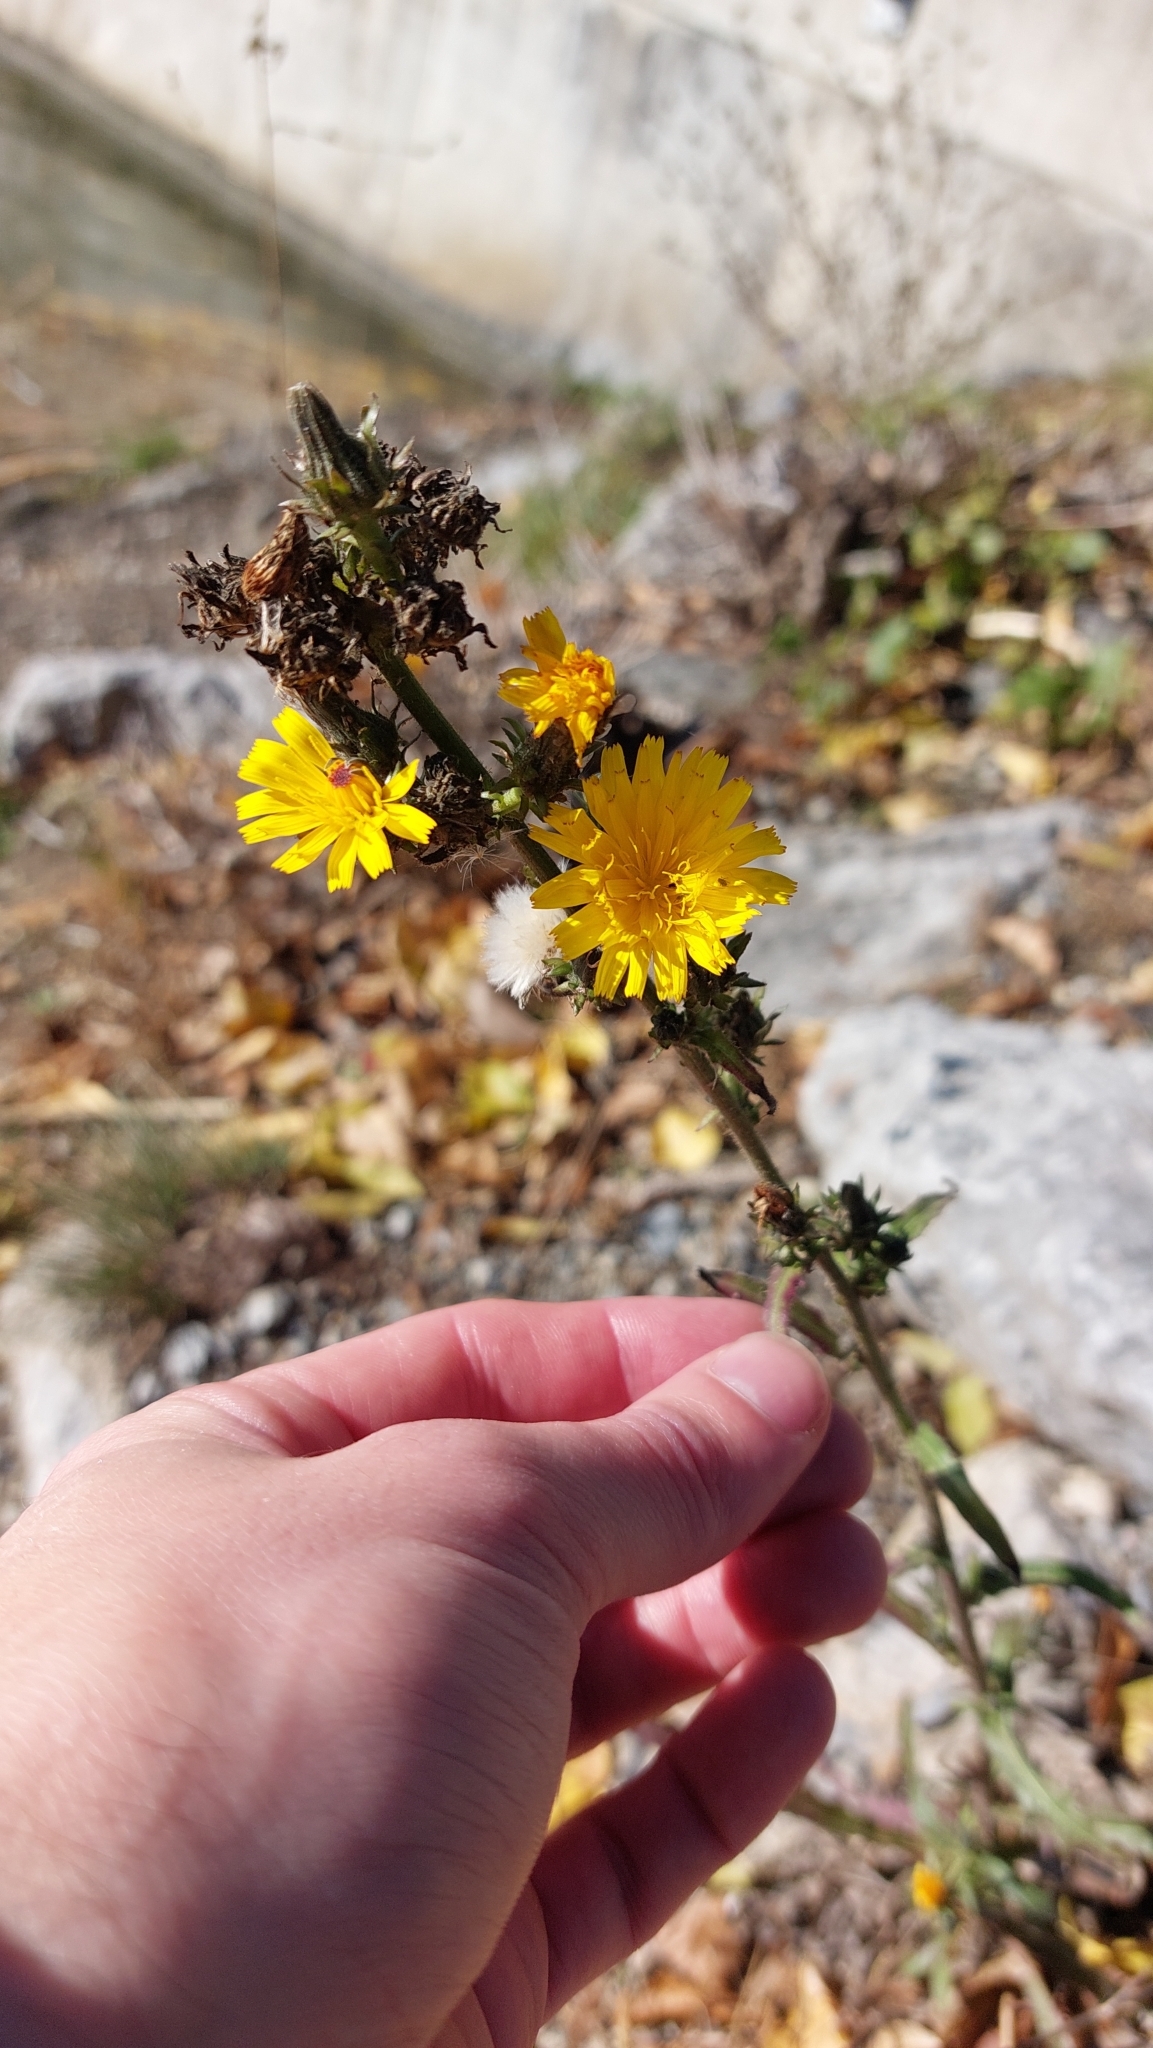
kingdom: Plantae
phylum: Tracheophyta
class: Magnoliopsida
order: Asterales
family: Asteraceae
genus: Picris
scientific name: Picris hieracioides
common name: Hawkweed oxtongue
